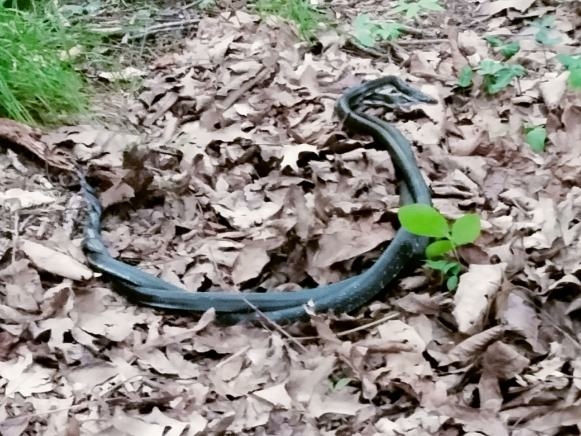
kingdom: Animalia
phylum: Chordata
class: Squamata
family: Colubridae
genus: Pantherophis
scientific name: Pantherophis
